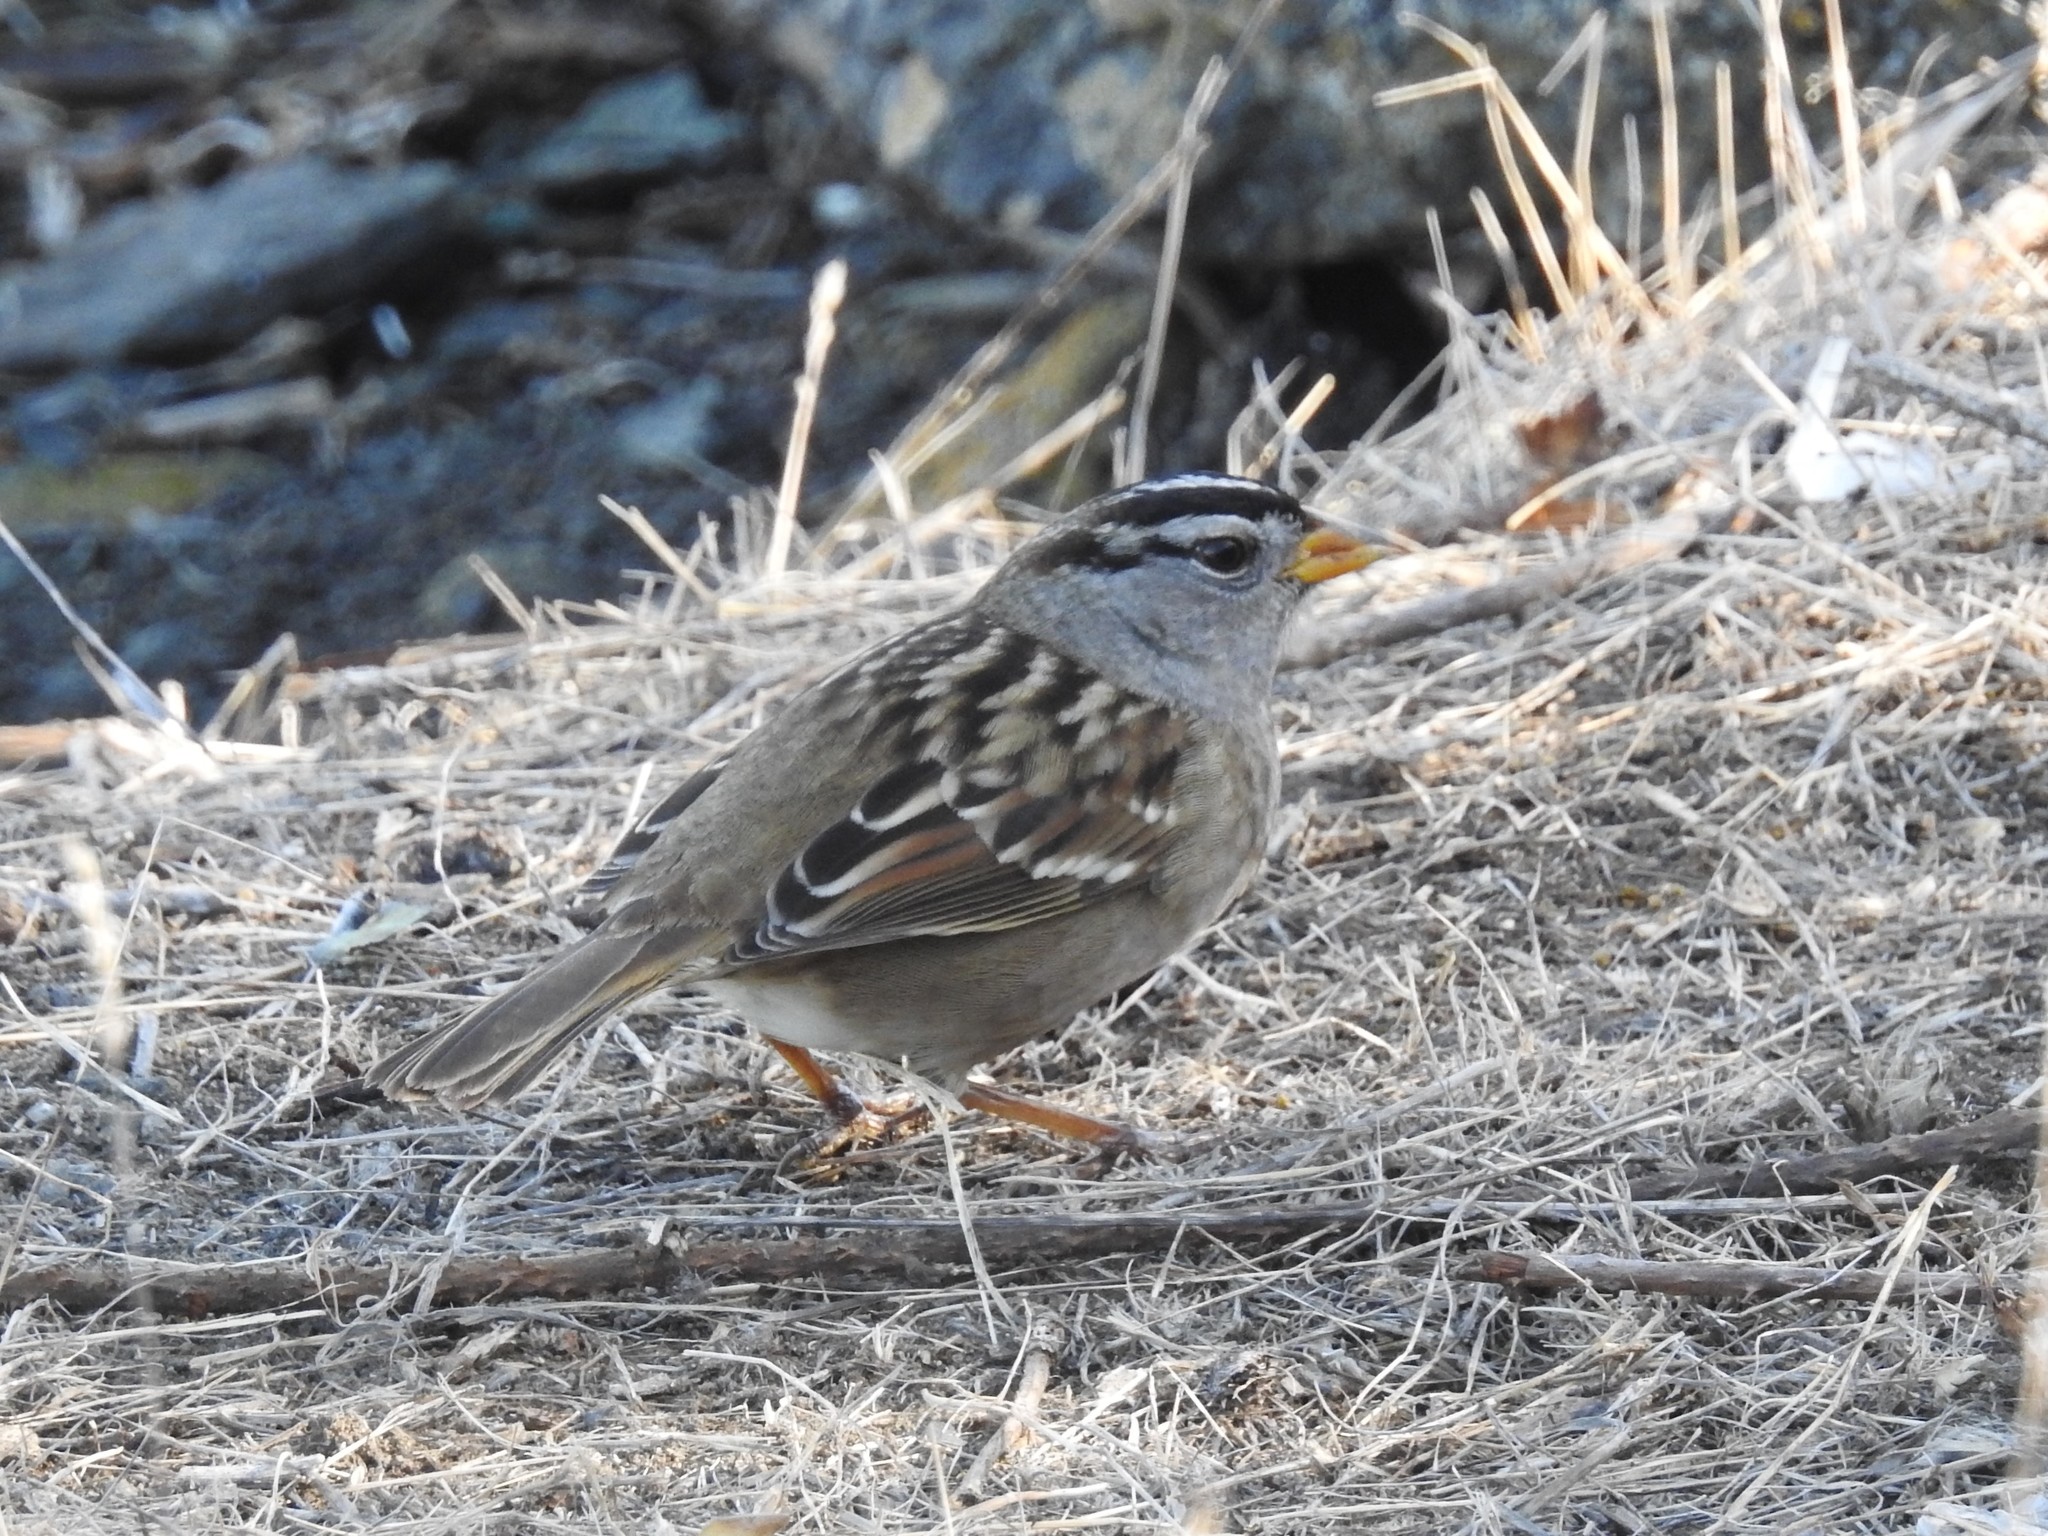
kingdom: Animalia
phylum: Chordata
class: Aves
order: Passeriformes
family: Passerellidae
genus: Zonotrichia
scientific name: Zonotrichia leucophrys
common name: White-crowned sparrow
